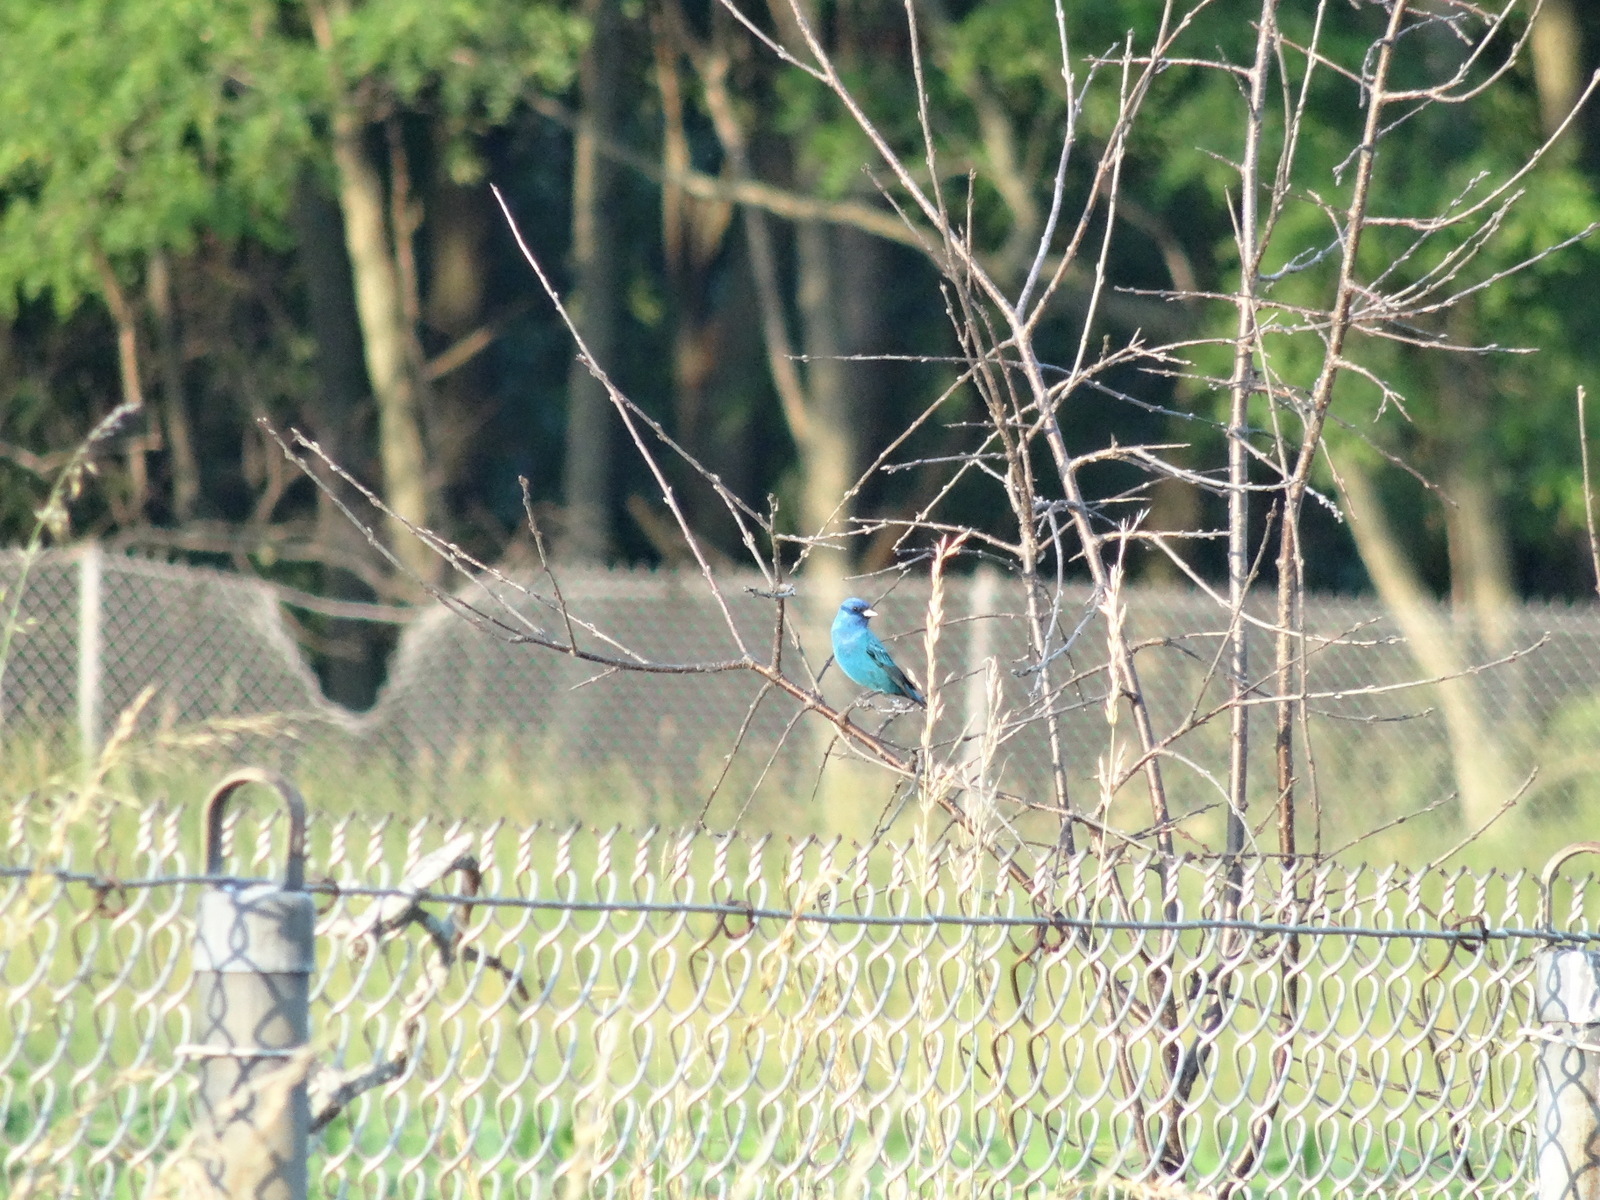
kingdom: Animalia
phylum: Chordata
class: Aves
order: Passeriformes
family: Cardinalidae
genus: Passerina
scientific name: Passerina cyanea
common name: Indigo bunting
